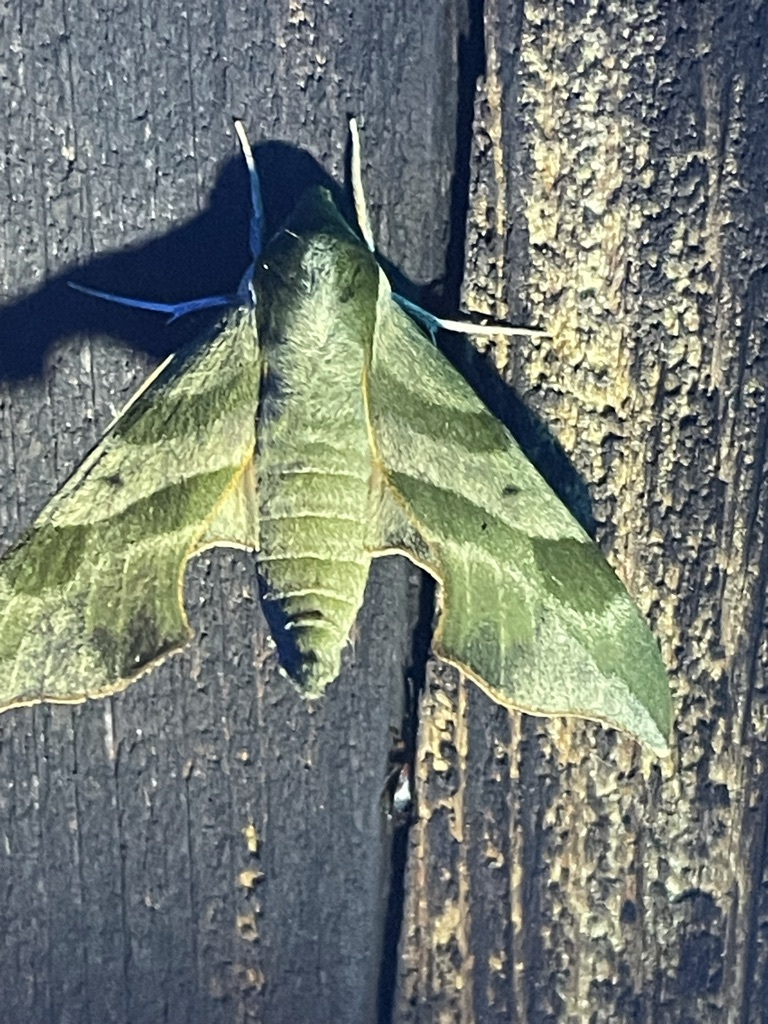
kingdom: Animalia
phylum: Arthropoda
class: Insecta
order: Lepidoptera
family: Sphingidae
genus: Darapsa
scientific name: Darapsa myron
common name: Hog sphinx
